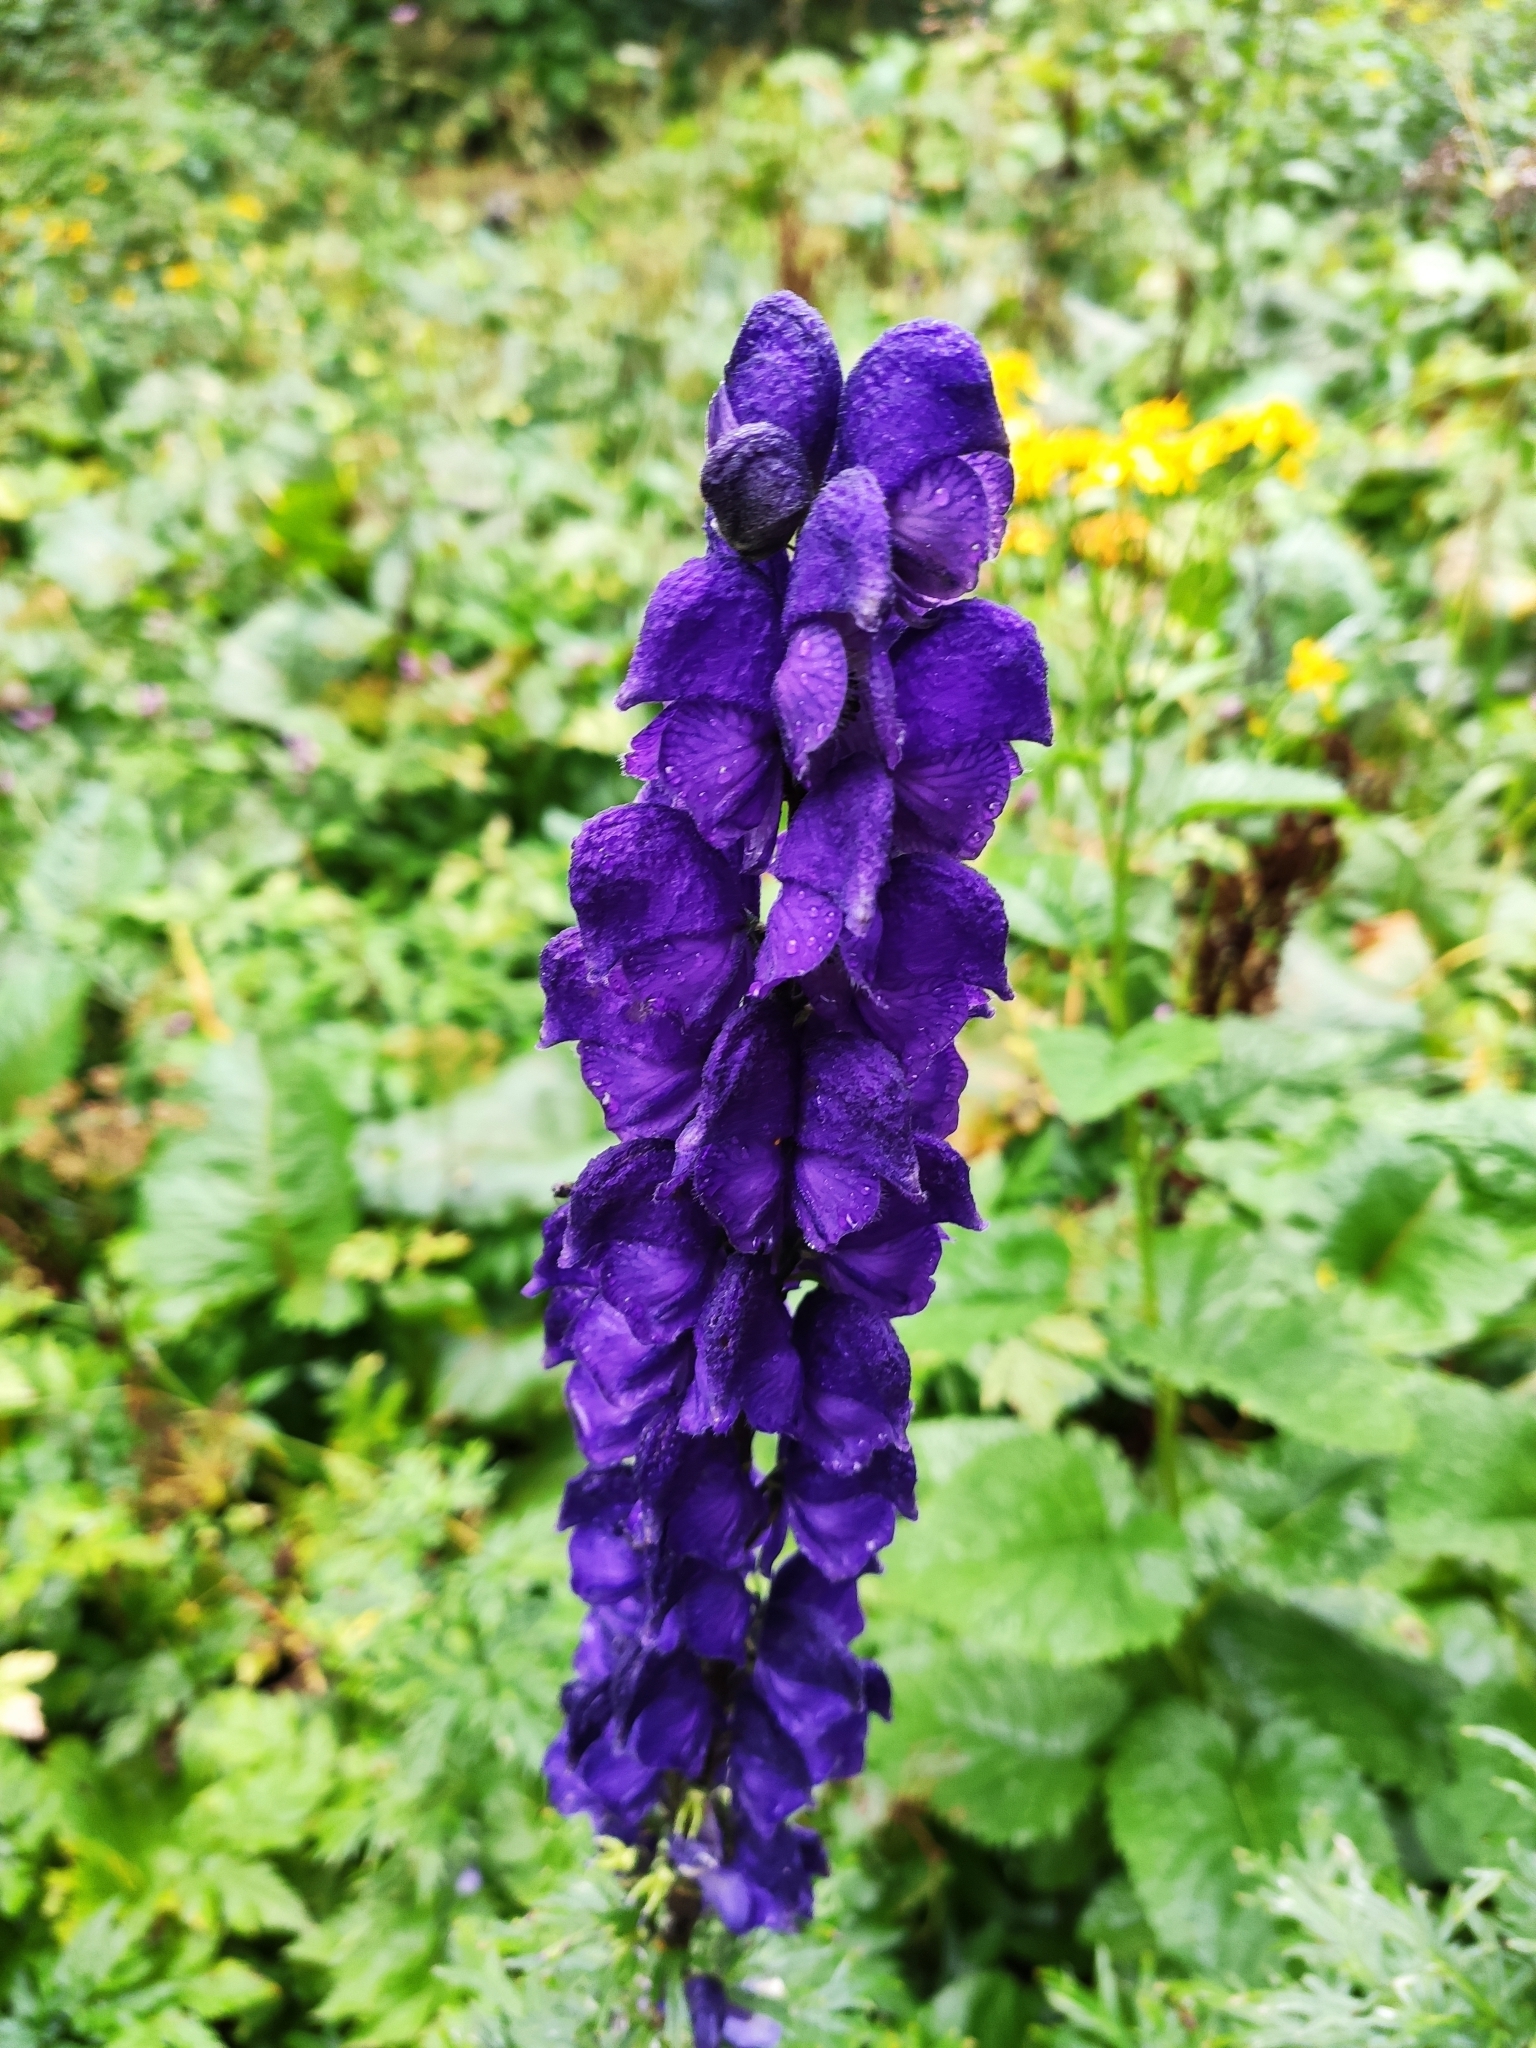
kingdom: Plantae
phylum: Tracheophyta
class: Magnoliopsida
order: Ranunculales
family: Ranunculaceae
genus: Aconitum
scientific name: Aconitum napellus
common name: Garden monkshood
